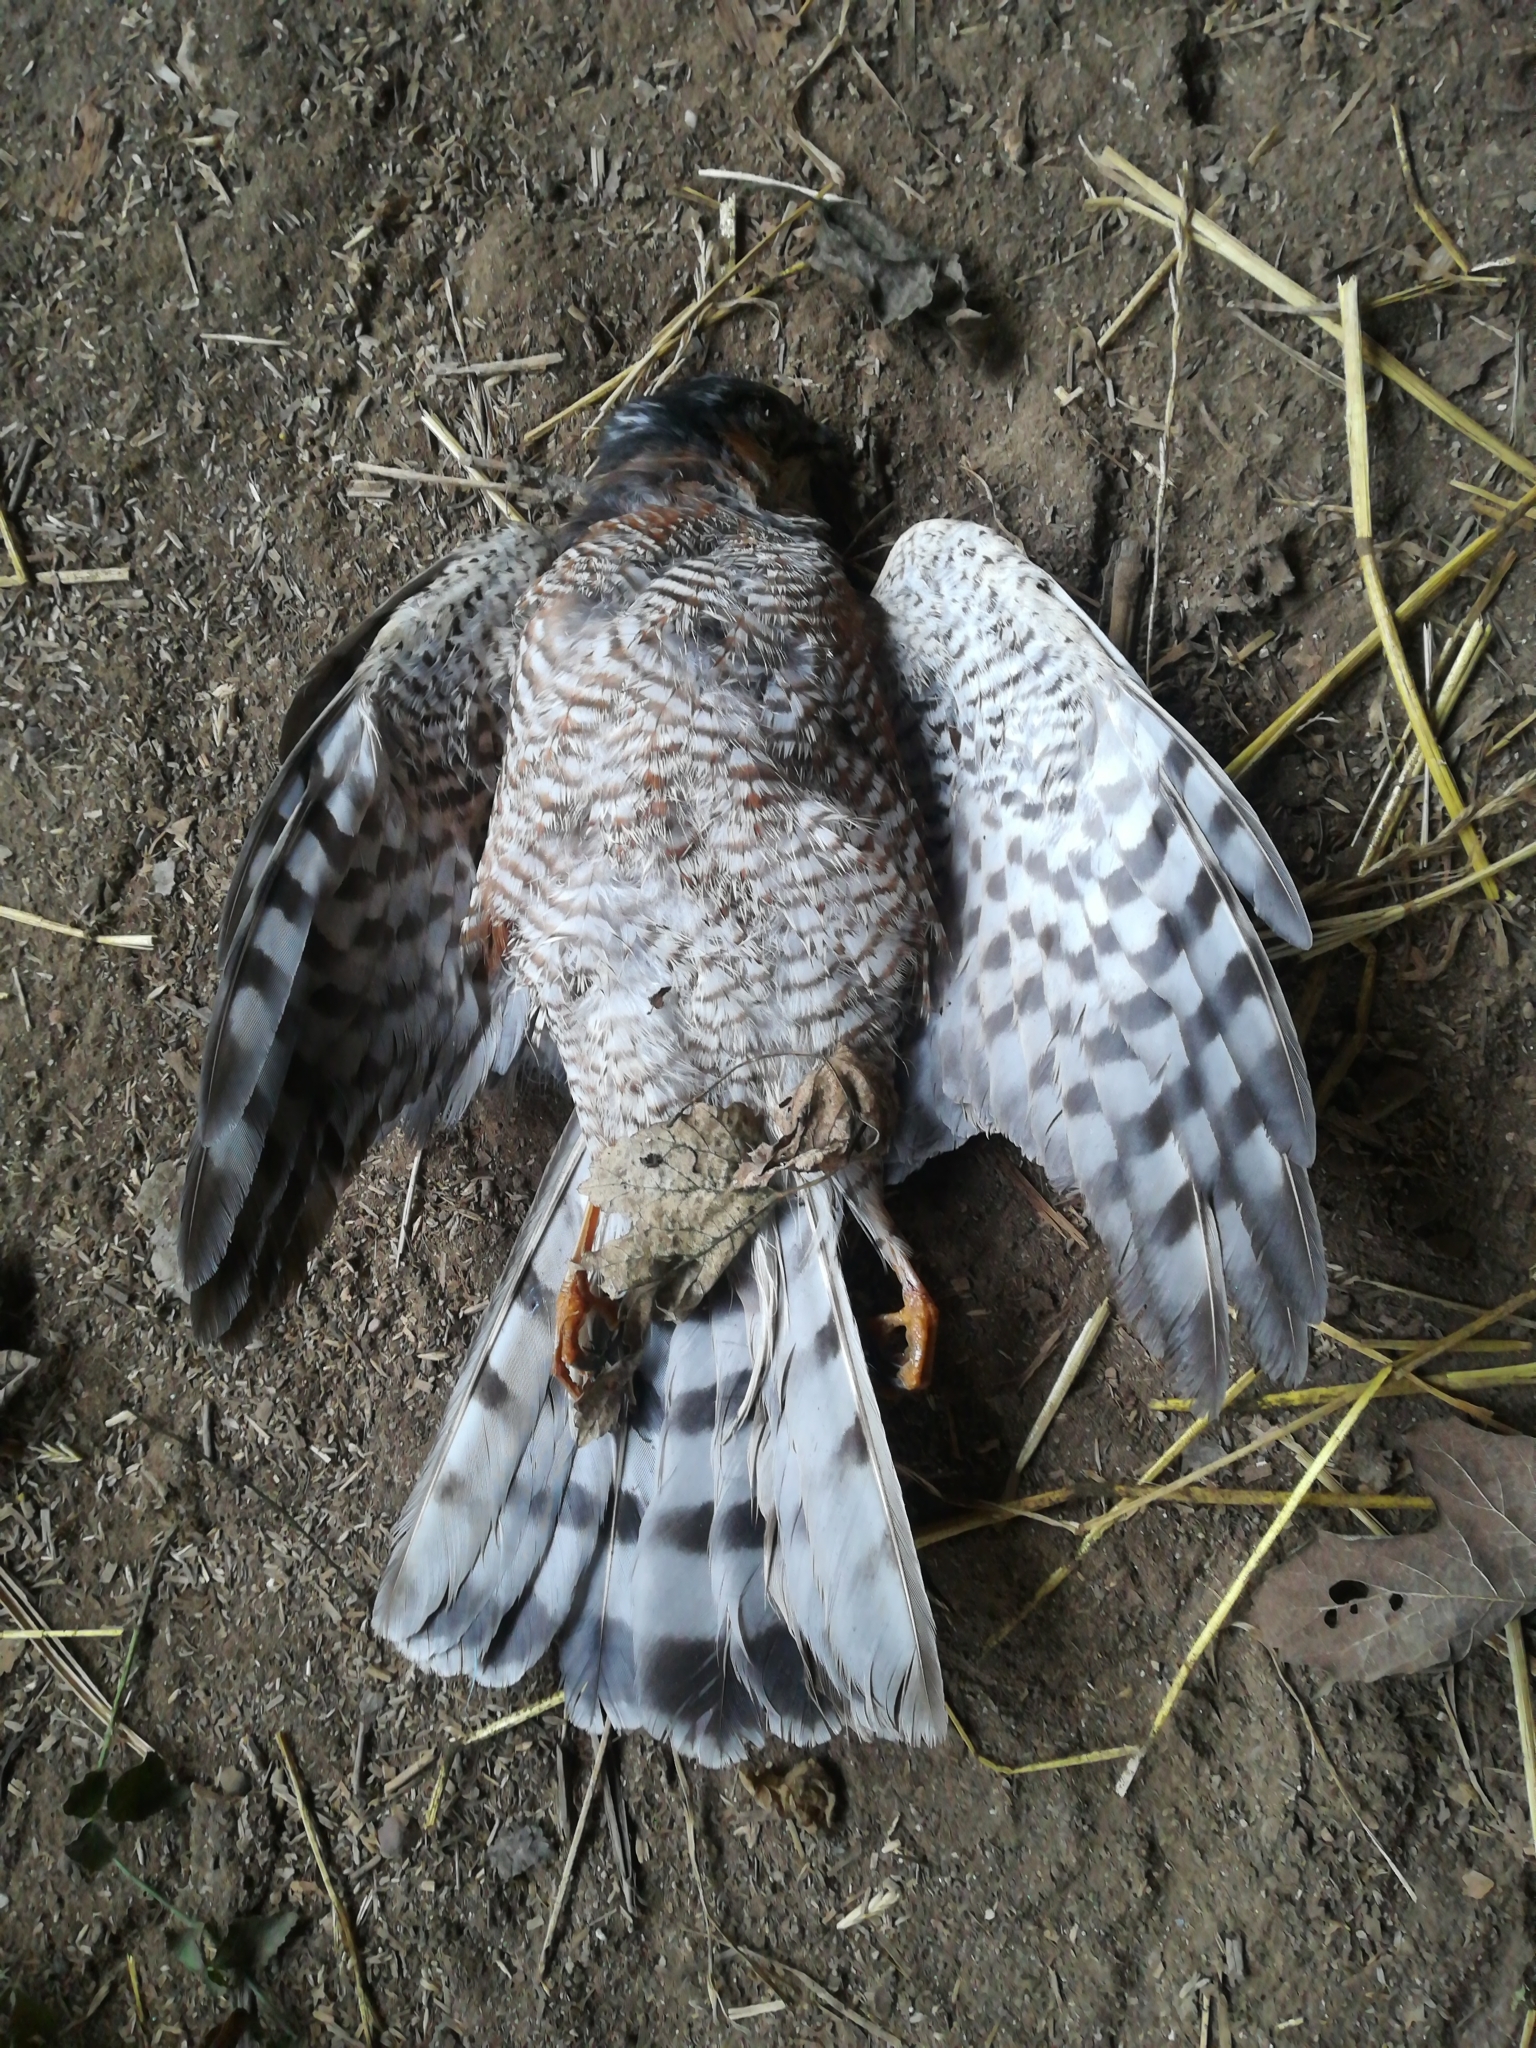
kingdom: Animalia
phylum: Chordata
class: Aves
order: Accipitriformes
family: Accipitridae
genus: Accipiter
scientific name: Accipiter nisus
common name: Eurasian sparrowhawk
